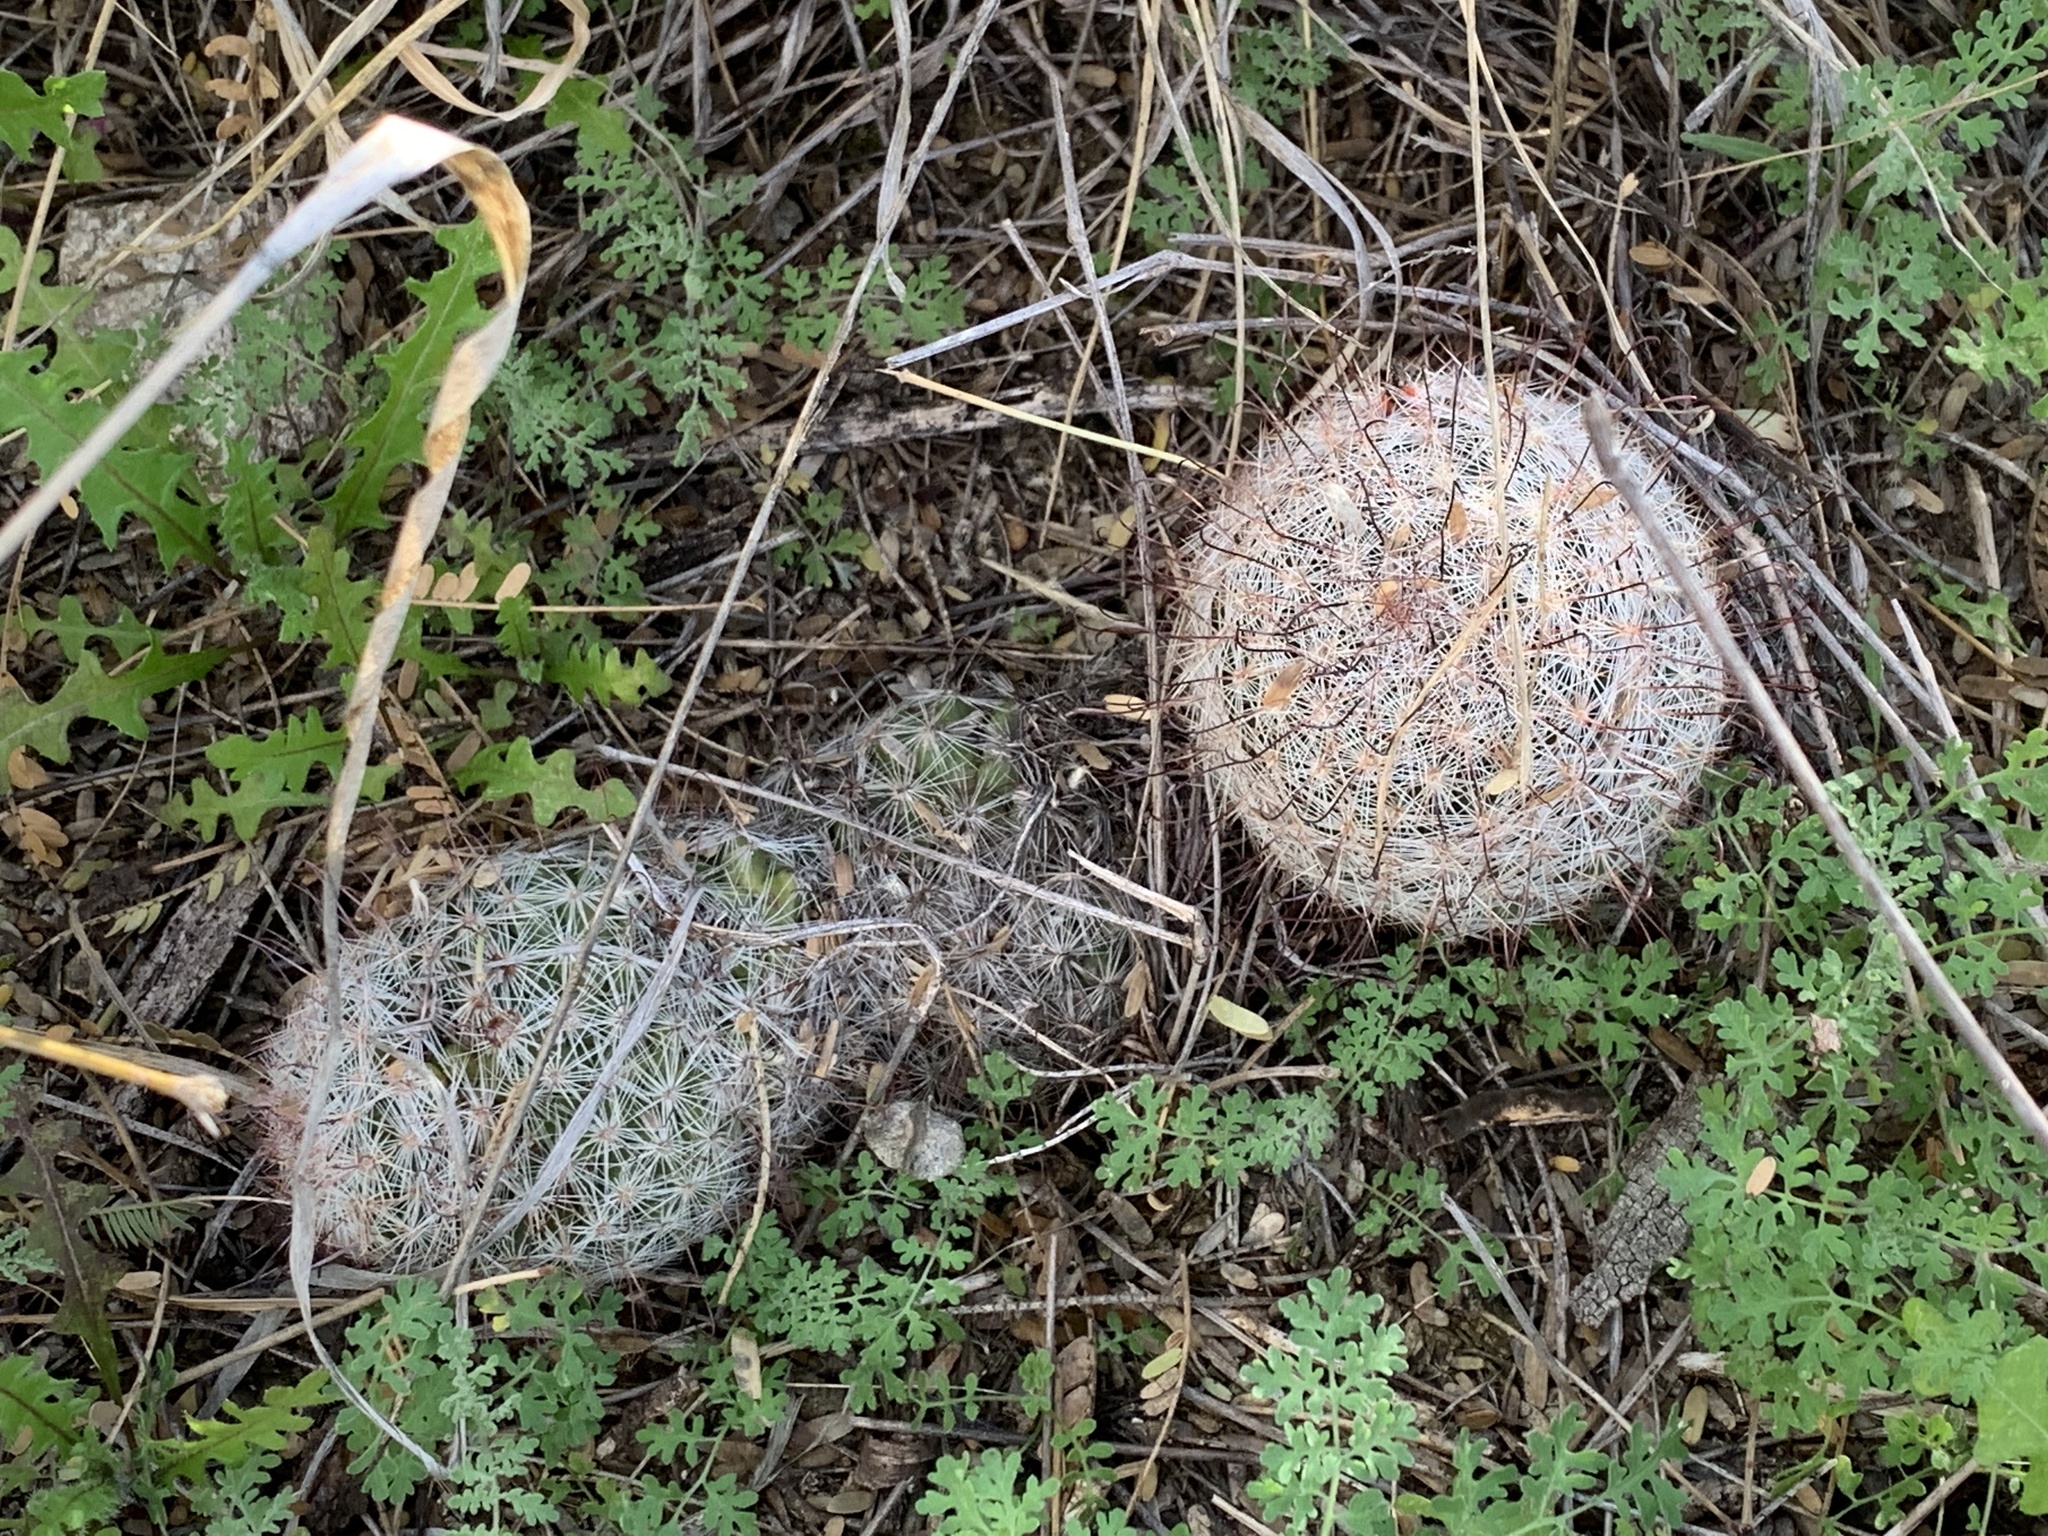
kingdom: Plantae
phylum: Tracheophyta
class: Magnoliopsida
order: Caryophyllales
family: Cactaceae
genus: Cochemiea
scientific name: Cochemiea grahamii
